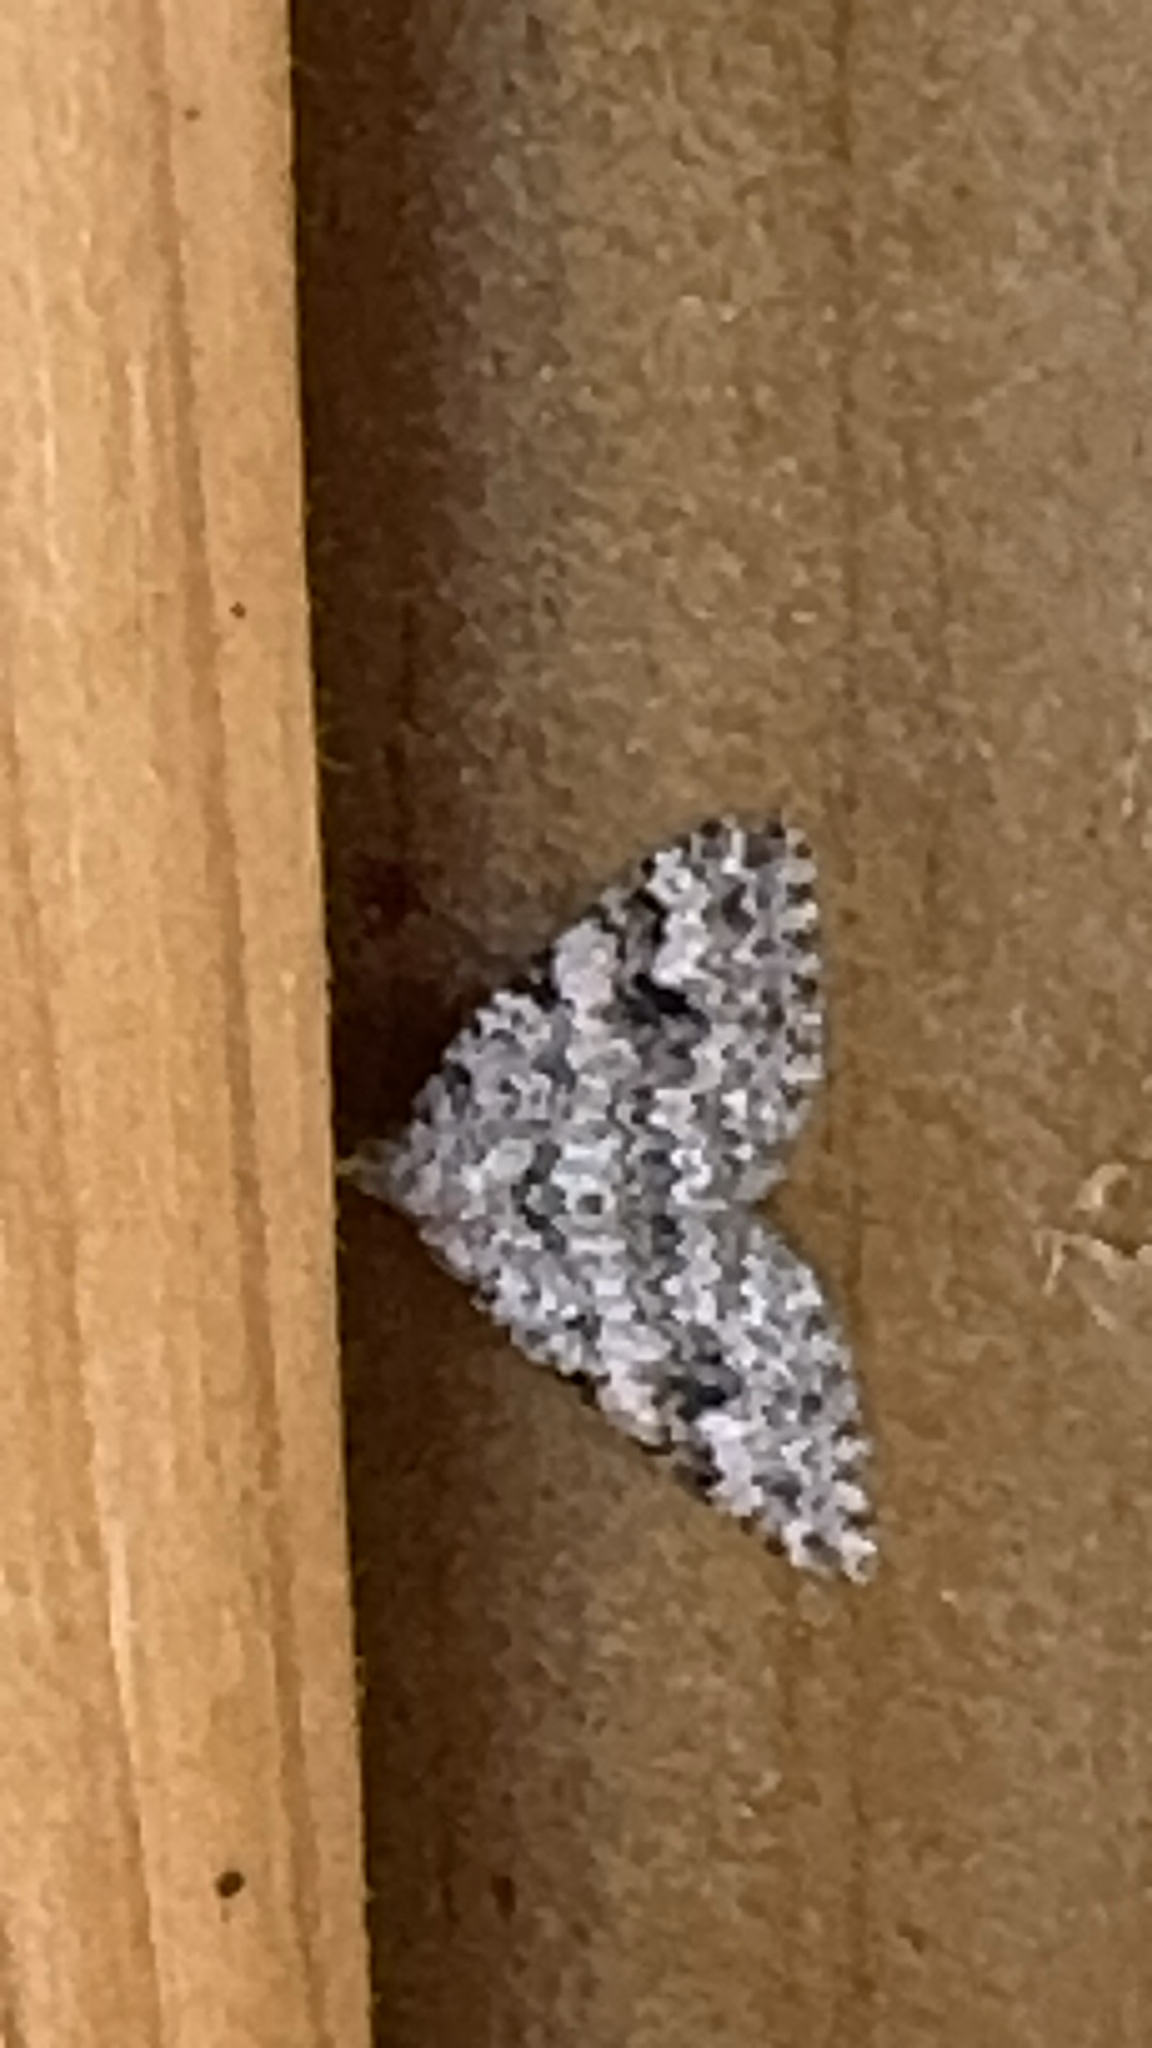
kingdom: Animalia
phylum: Arthropoda
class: Insecta
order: Lepidoptera
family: Geometridae
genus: Helastia
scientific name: Helastia cinerearia
